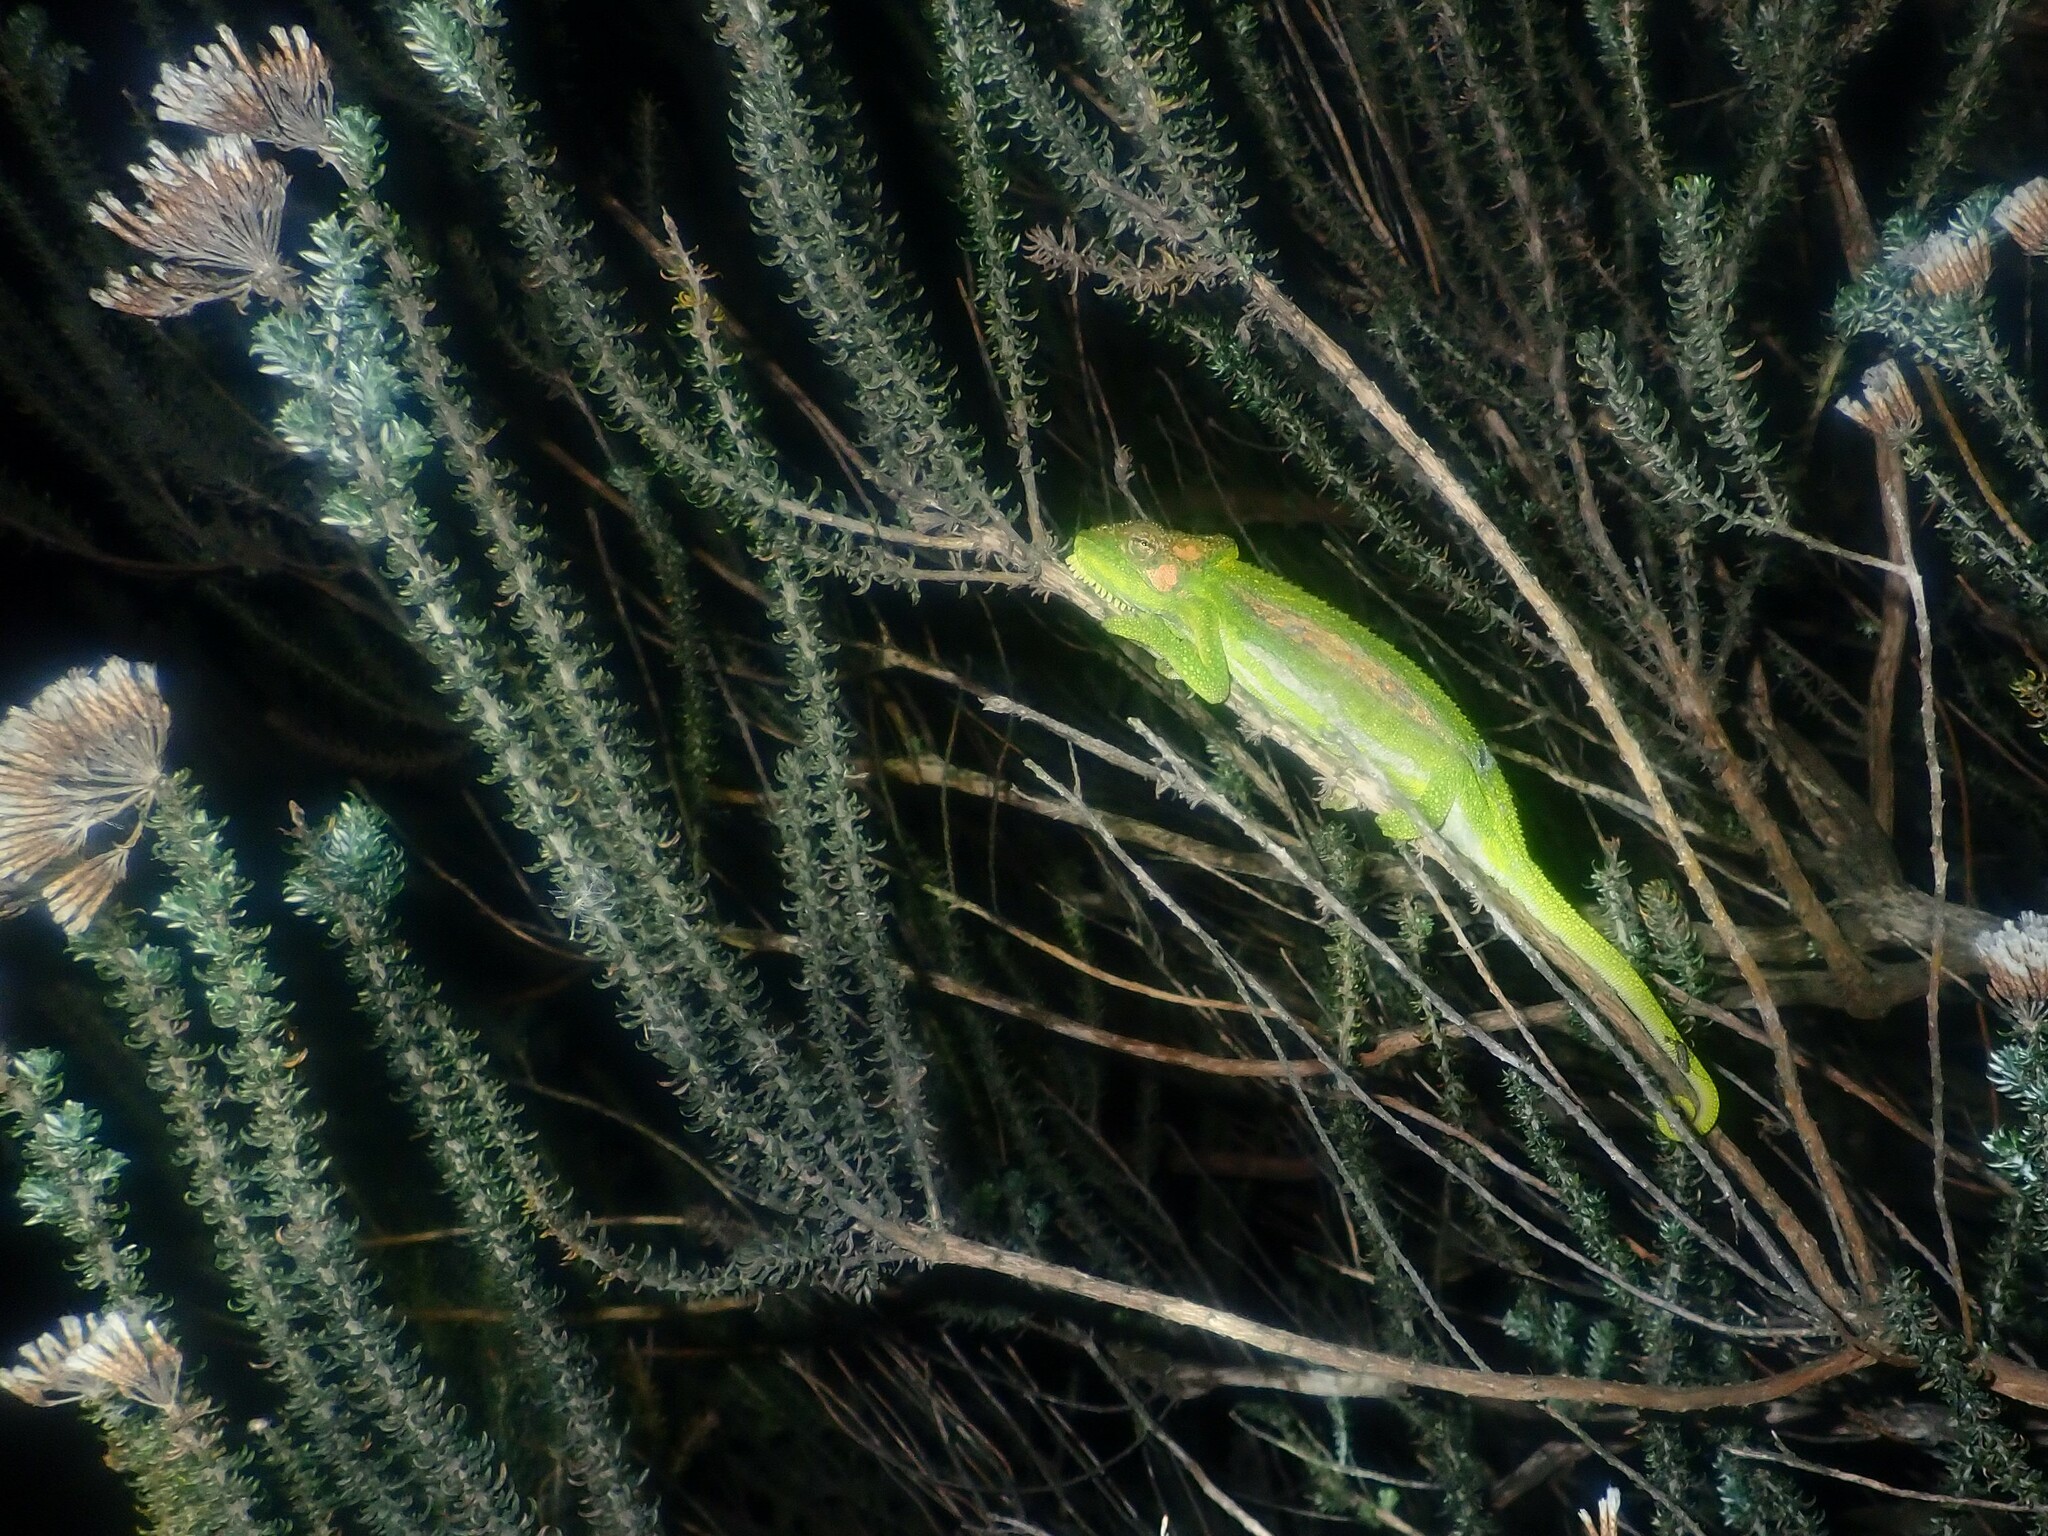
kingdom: Animalia
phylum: Chordata
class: Squamata
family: Chamaeleonidae
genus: Bradypodion
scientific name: Bradypodion pumilum
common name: Cape dwarf chameleon
